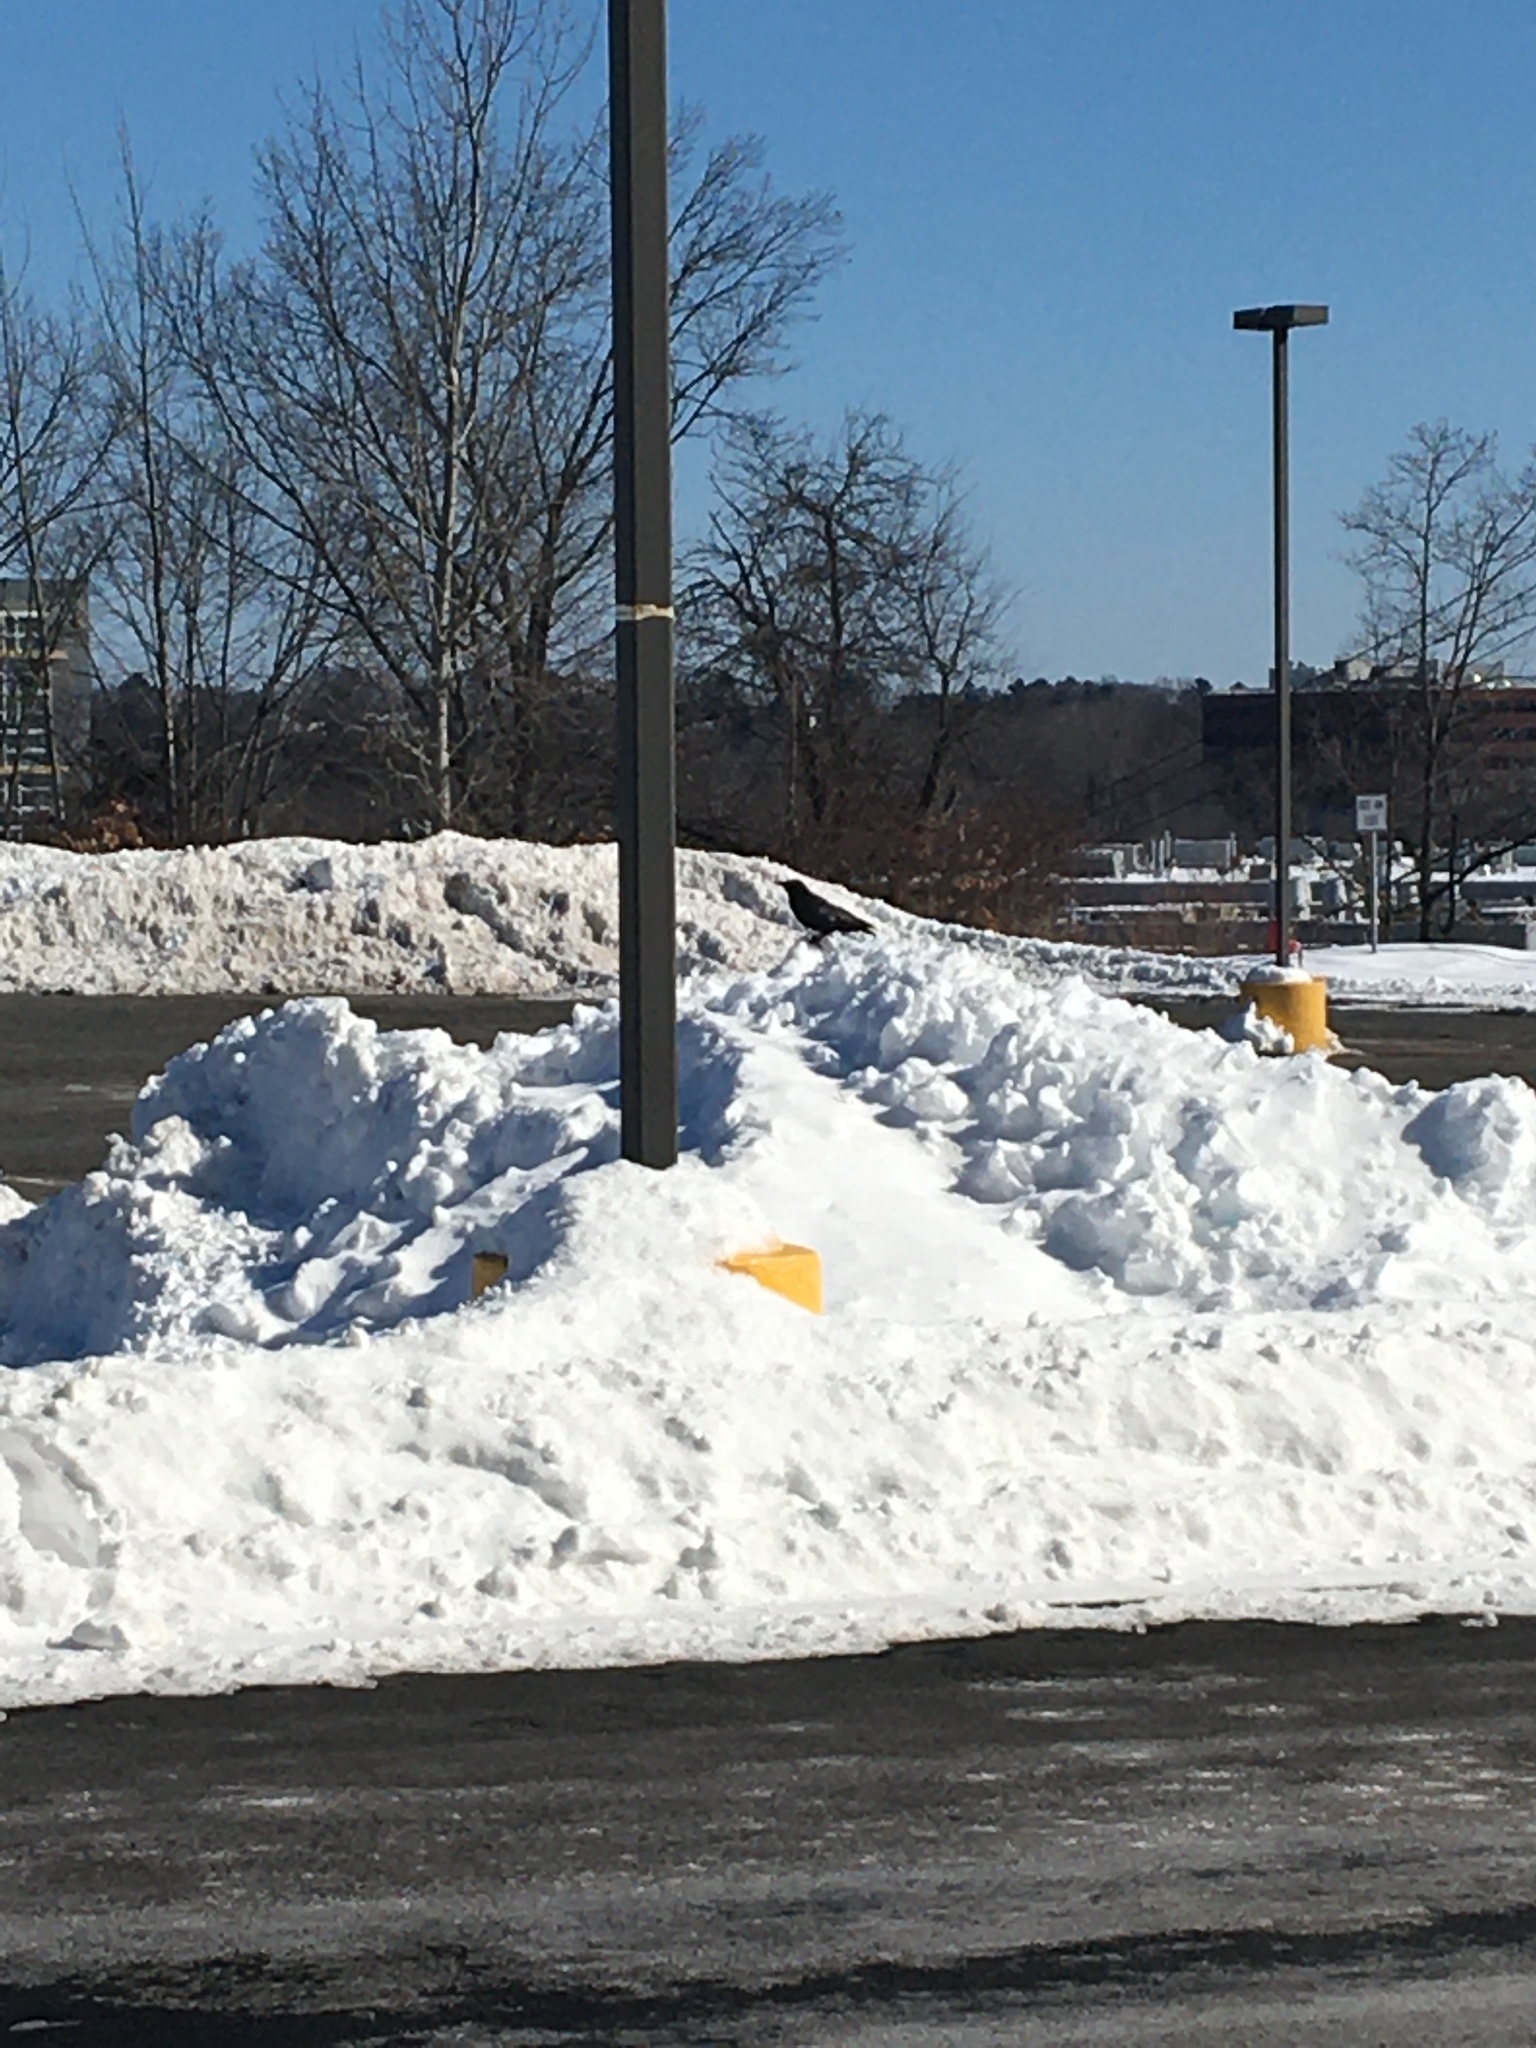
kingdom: Animalia
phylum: Chordata
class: Aves
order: Passeriformes
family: Corvidae
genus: Corvus
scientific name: Corvus
